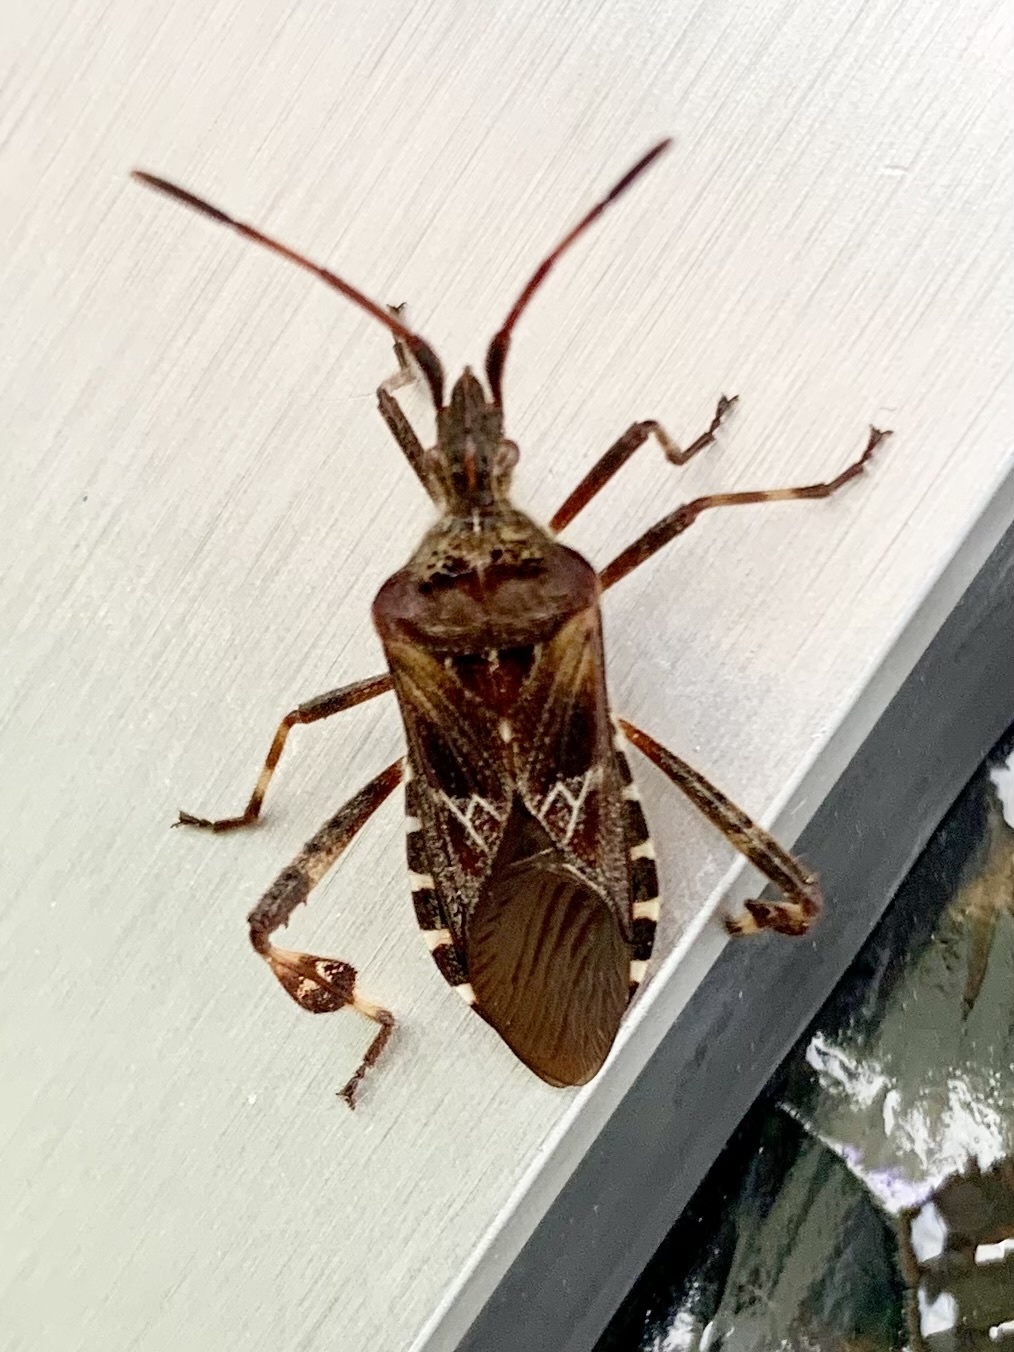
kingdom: Animalia
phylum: Arthropoda
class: Insecta
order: Hemiptera
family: Coreidae
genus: Leptoglossus
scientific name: Leptoglossus occidentalis
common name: Western conifer-seed bug
